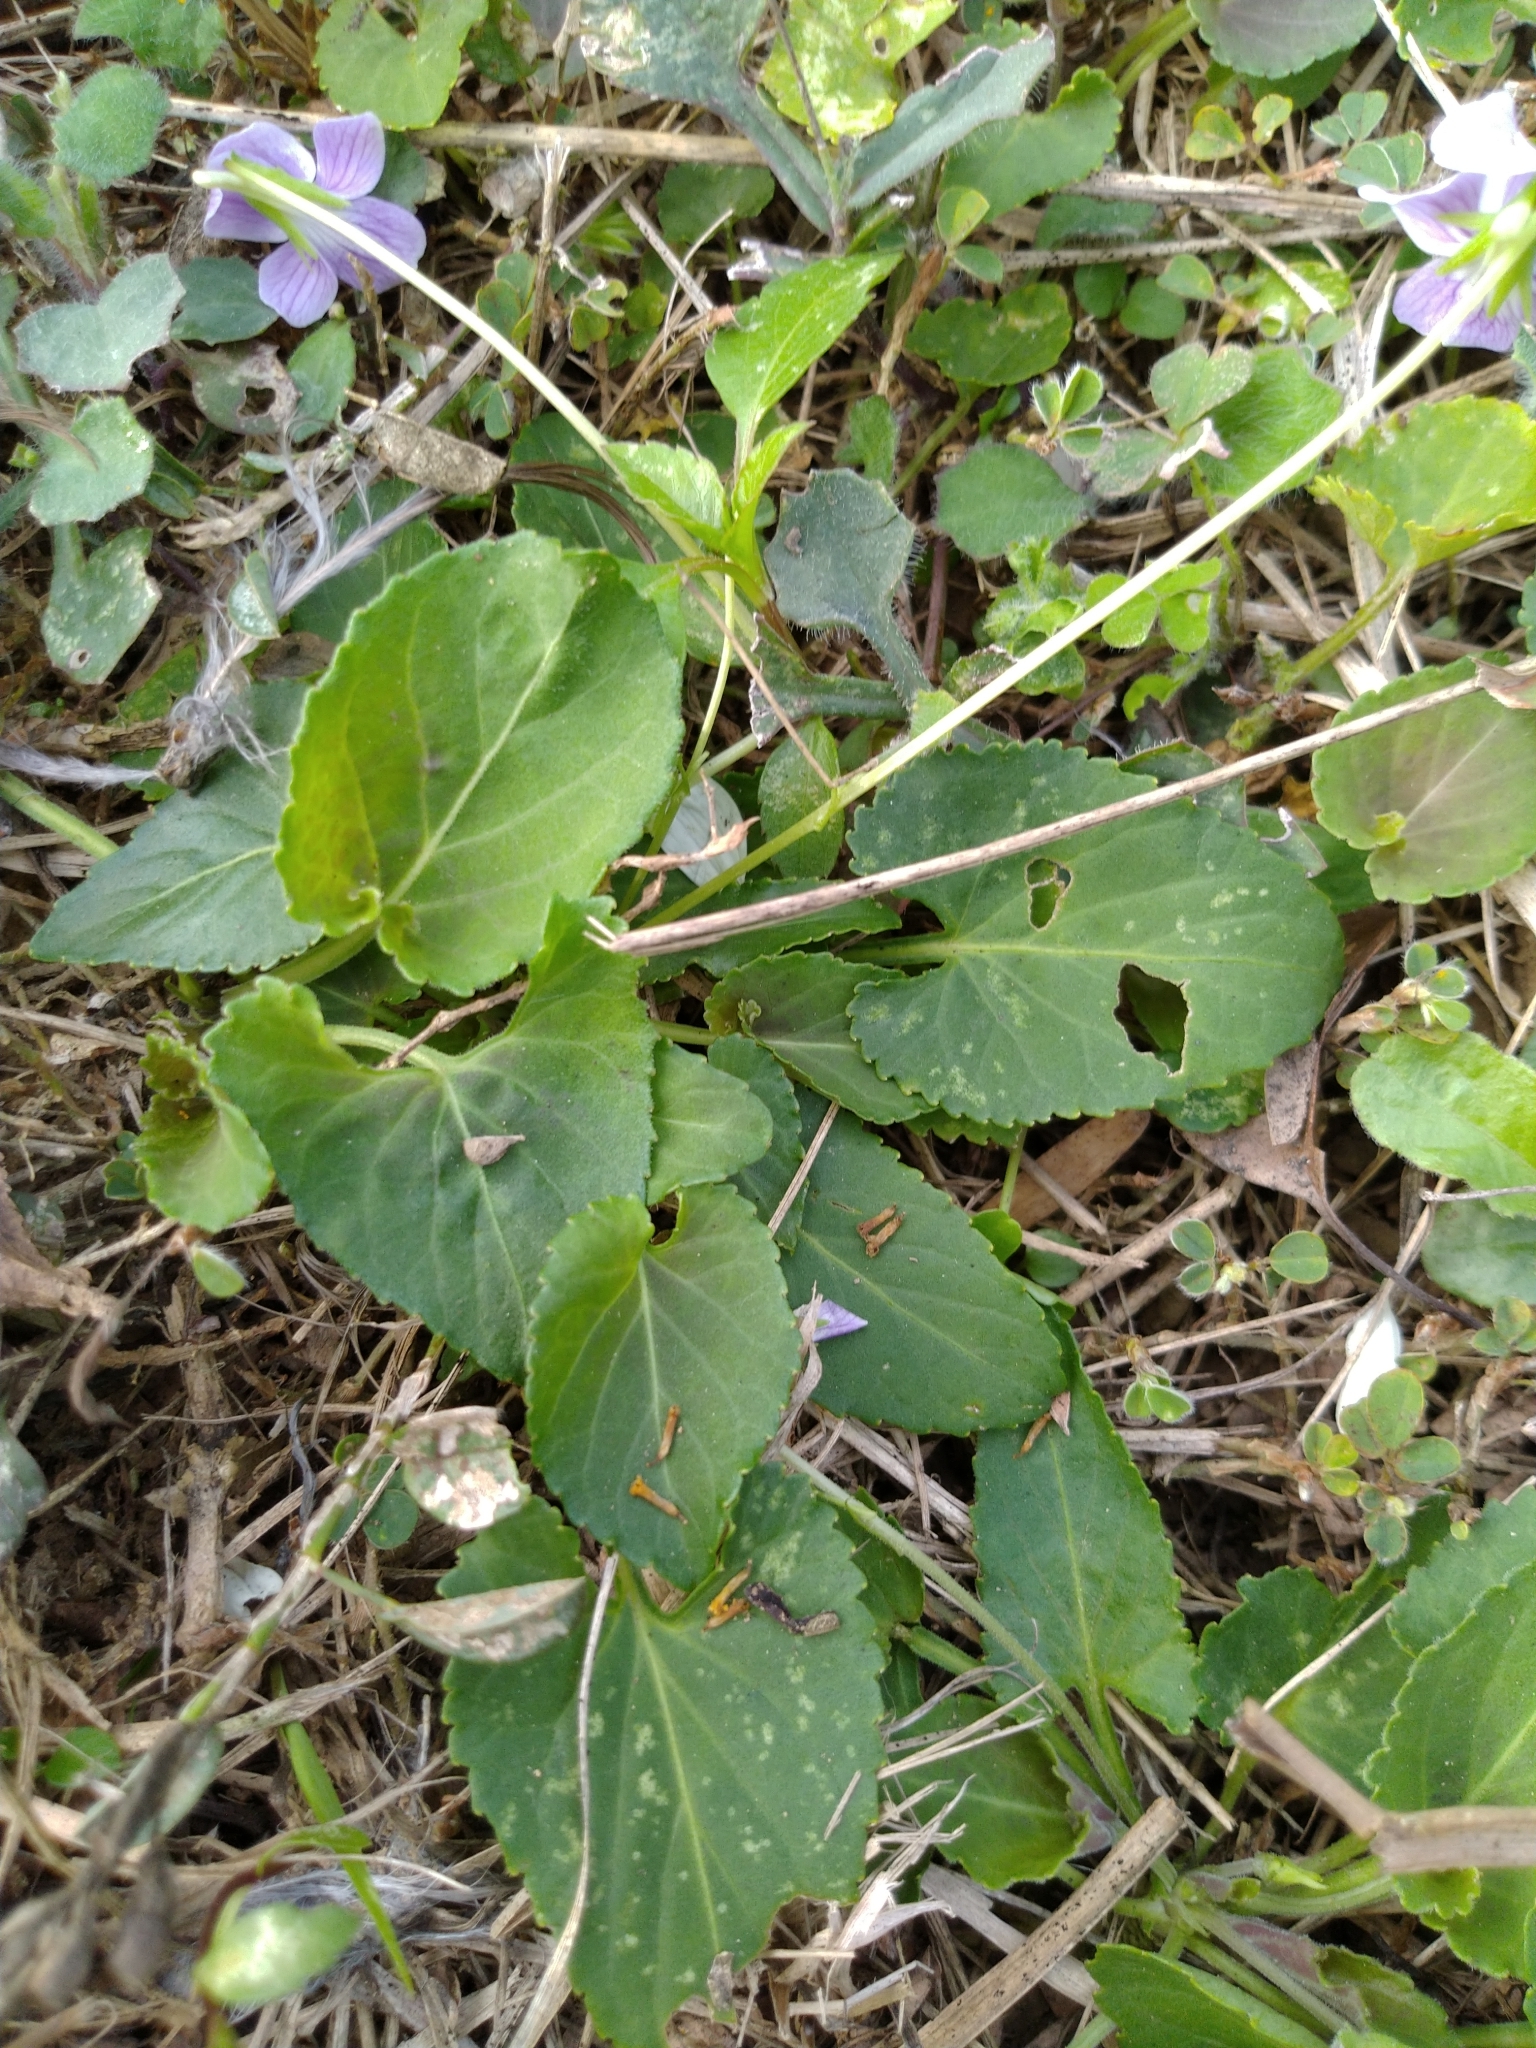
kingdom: Plantae
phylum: Tracheophyta
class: Magnoliopsida
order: Malpighiales
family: Violaceae
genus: Viola
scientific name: Viola
